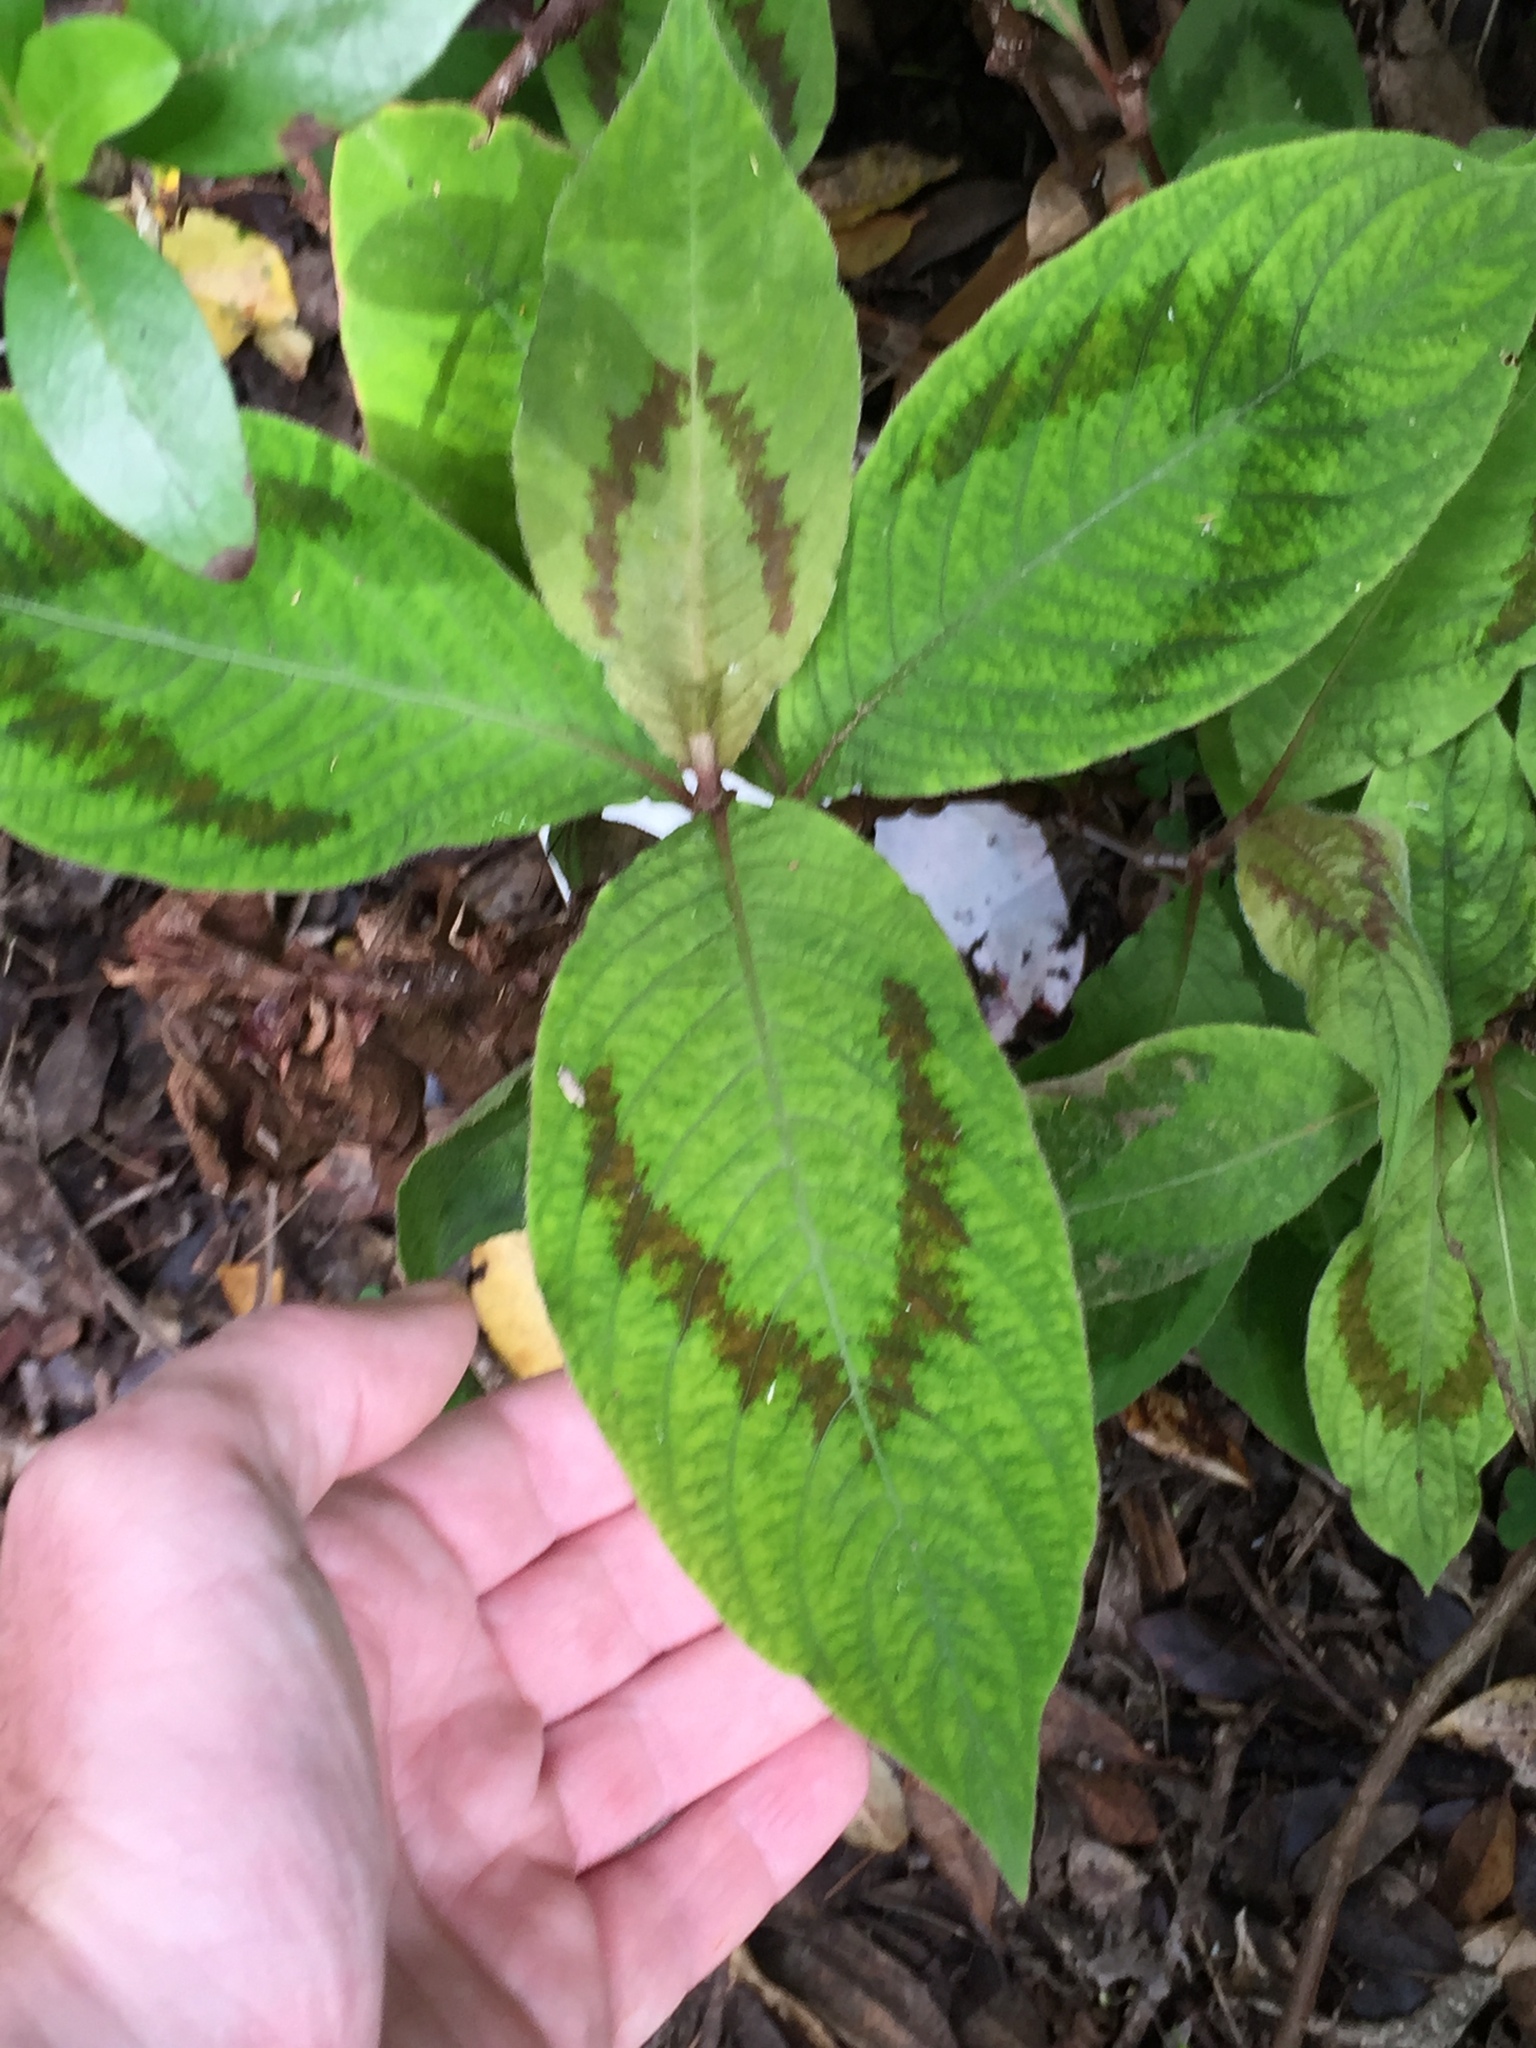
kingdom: Plantae
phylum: Tracheophyta
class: Magnoliopsida
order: Caryophyllales
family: Polygonaceae
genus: Persicaria
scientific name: Persicaria filiformis
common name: Asian jumpseed
